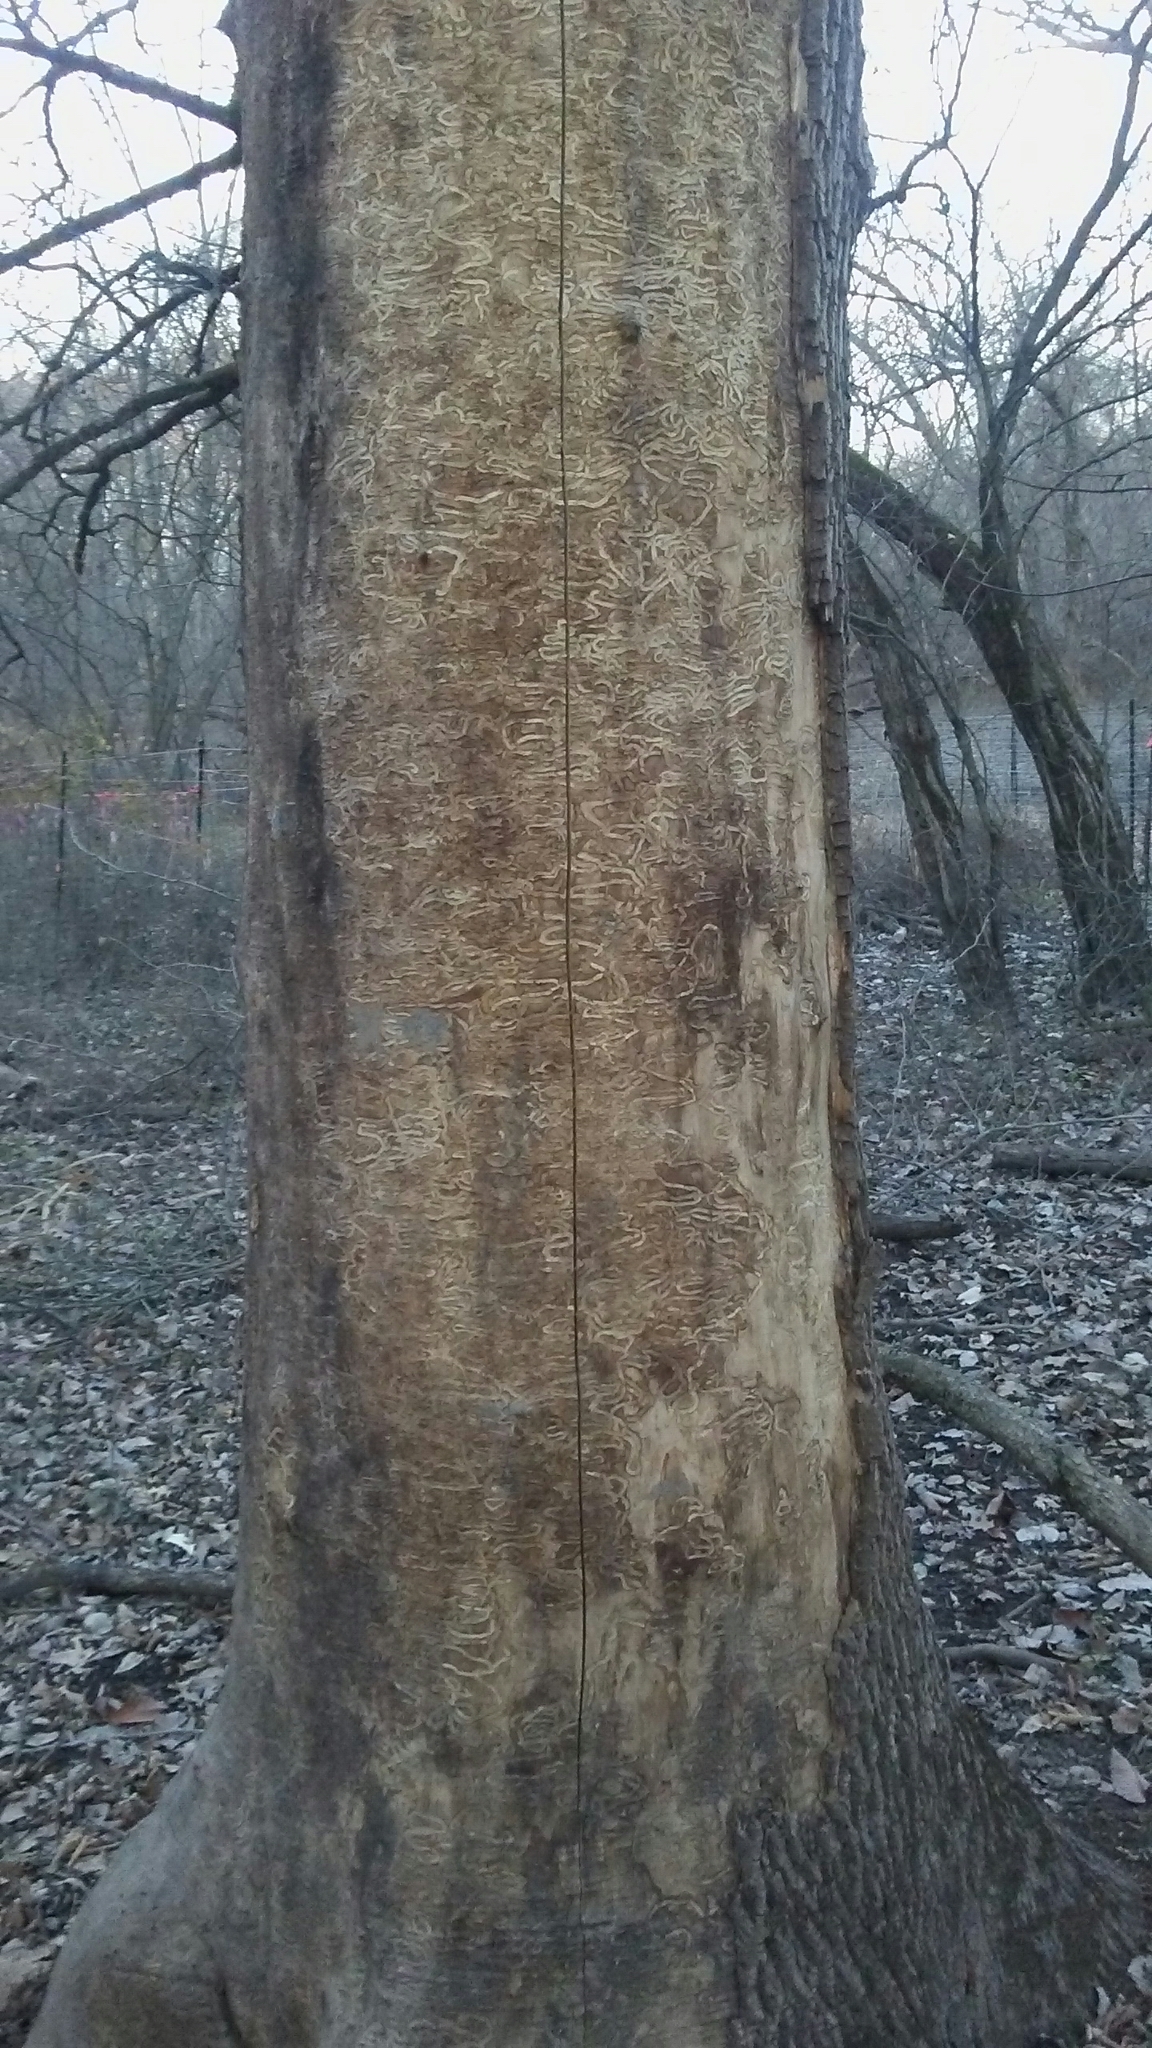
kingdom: Animalia
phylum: Arthropoda
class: Insecta
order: Coleoptera
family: Buprestidae
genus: Agrilus
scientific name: Agrilus planipennis
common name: Emerald ash borer
